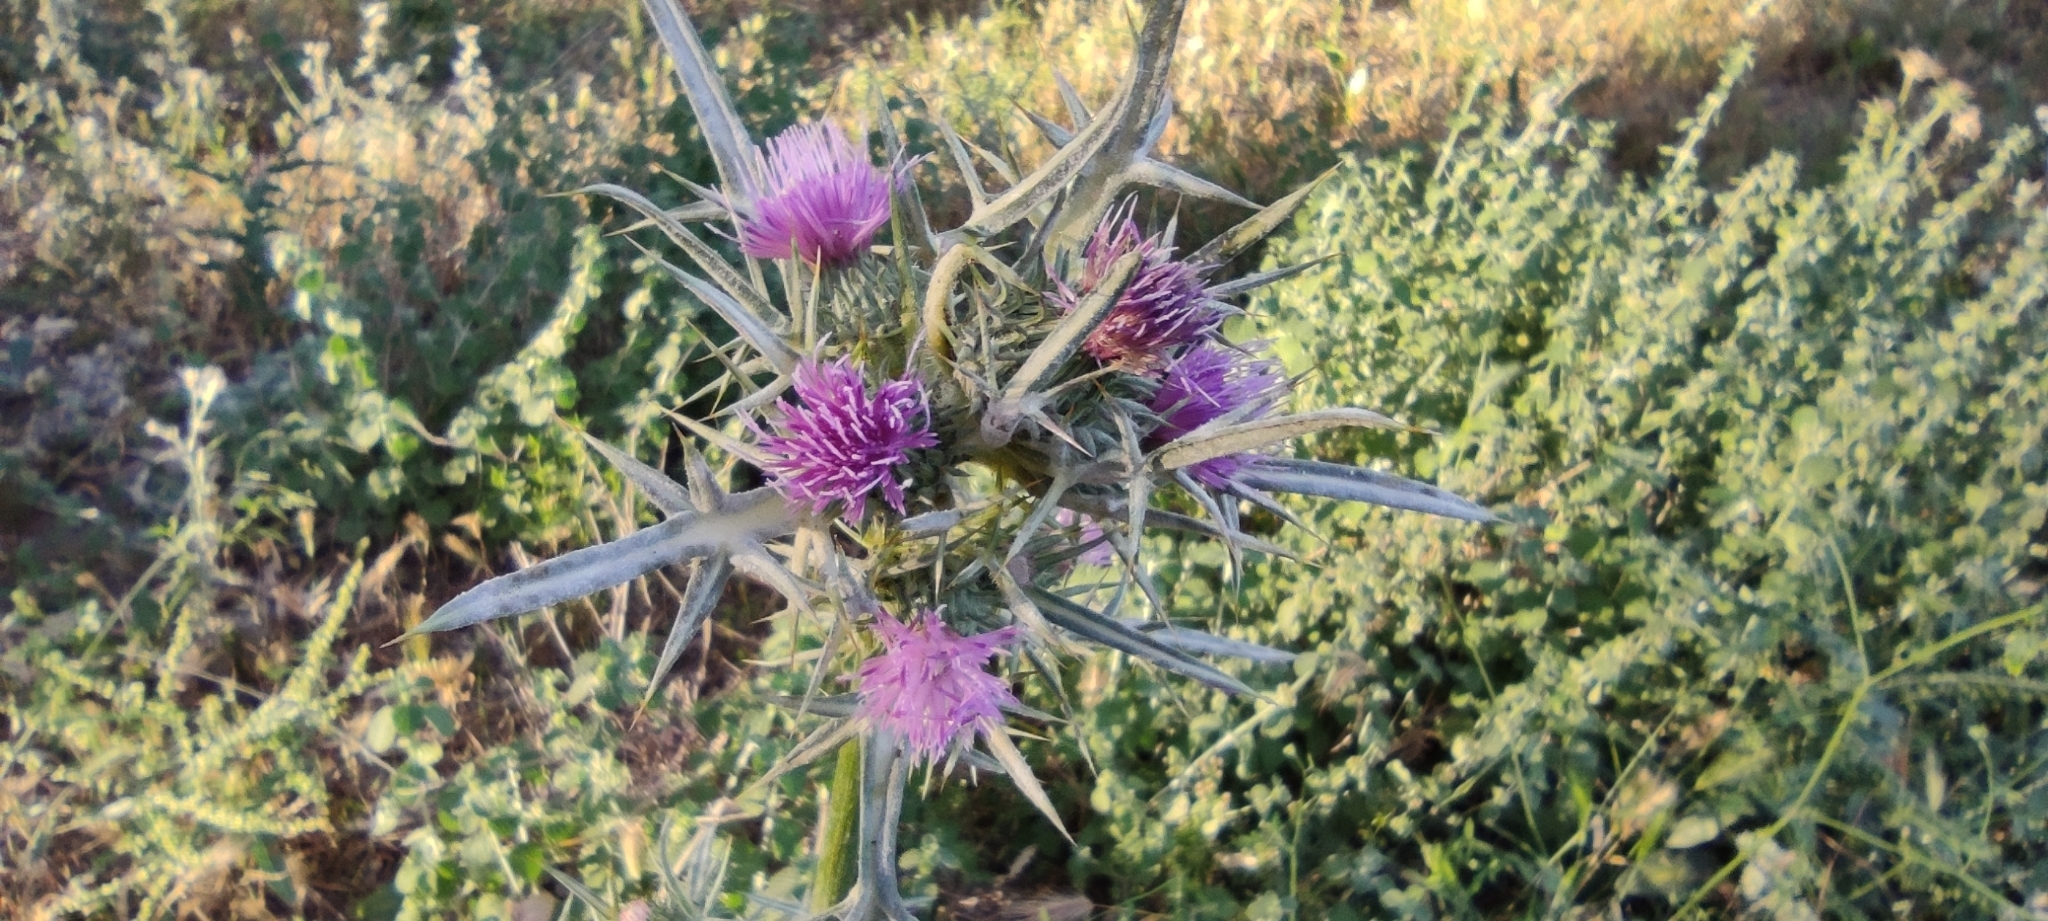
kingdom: Plantae
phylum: Tracheophyta
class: Magnoliopsida
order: Asterales
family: Asteraceae
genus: Notobasis
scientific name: Notobasis syriaca
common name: Syrian thistle
